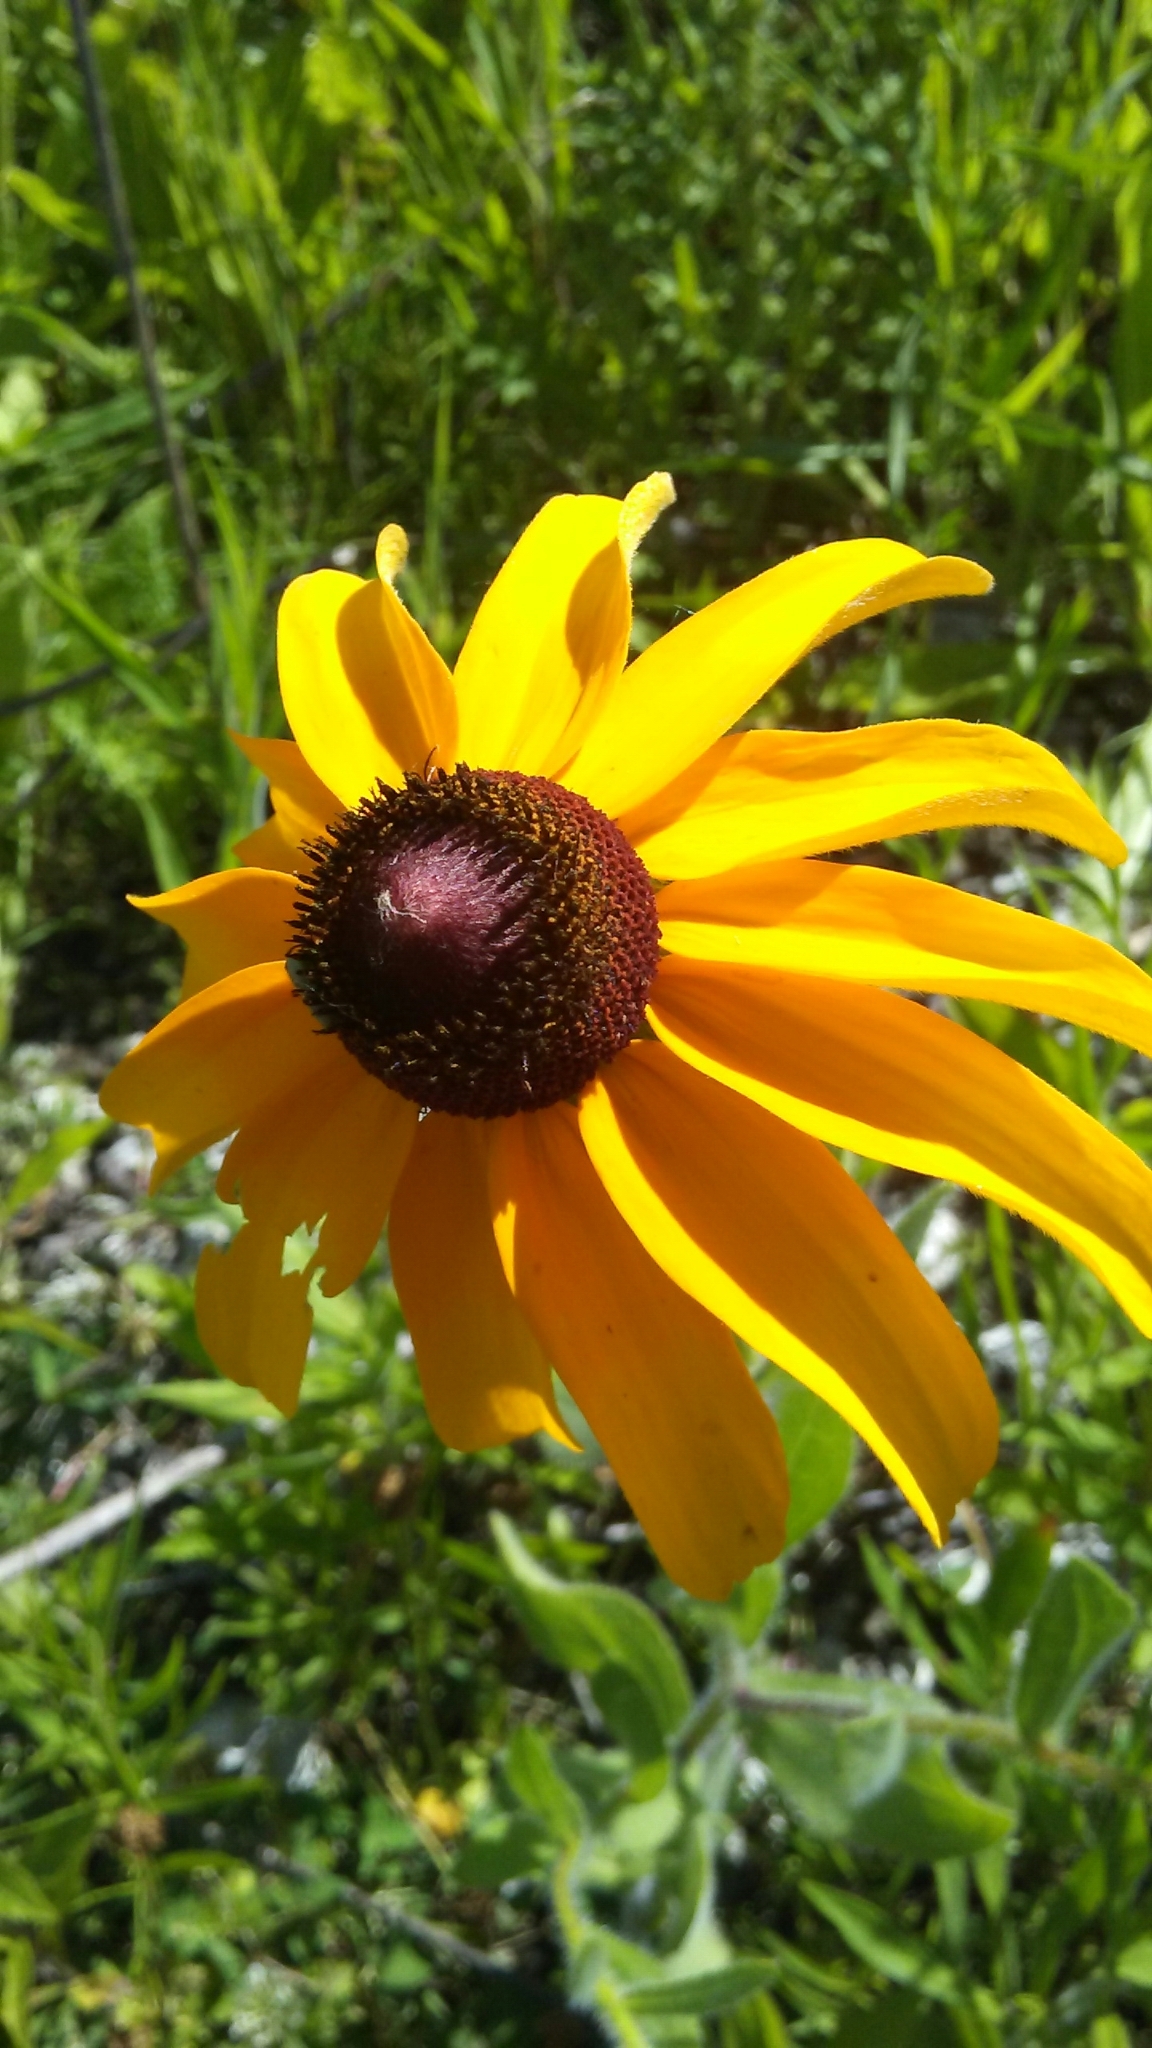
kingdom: Plantae
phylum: Tracheophyta
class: Magnoliopsida
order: Asterales
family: Asteraceae
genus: Rudbeckia
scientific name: Rudbeckia hirta
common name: Black-eyed-susan
